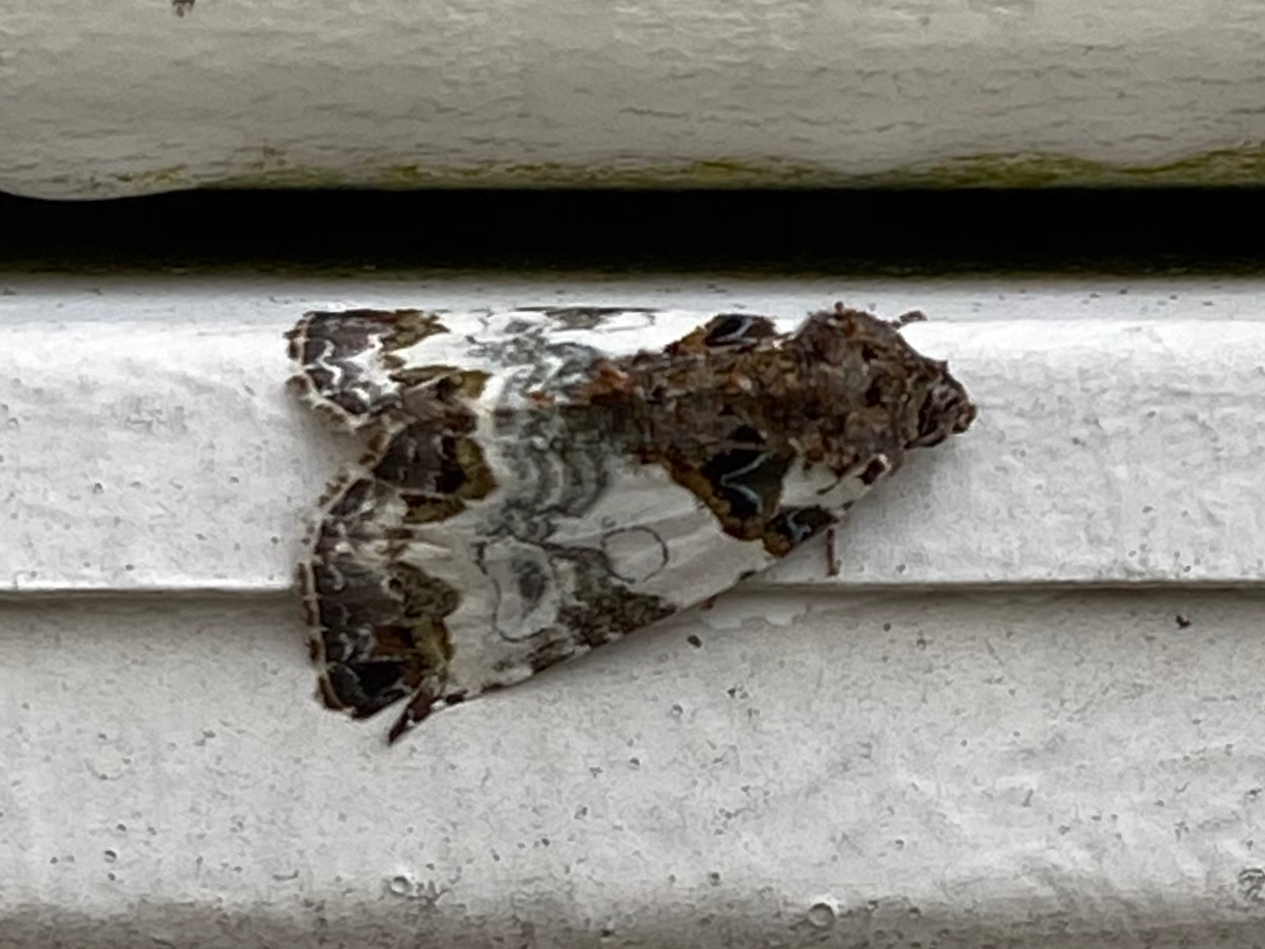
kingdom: Animalia
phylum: Arthropoda
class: Insecta
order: Lepidoptera
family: Noctuidae
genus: Cerma
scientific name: Cerma cerintha
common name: Tufted bird-dropping moth
